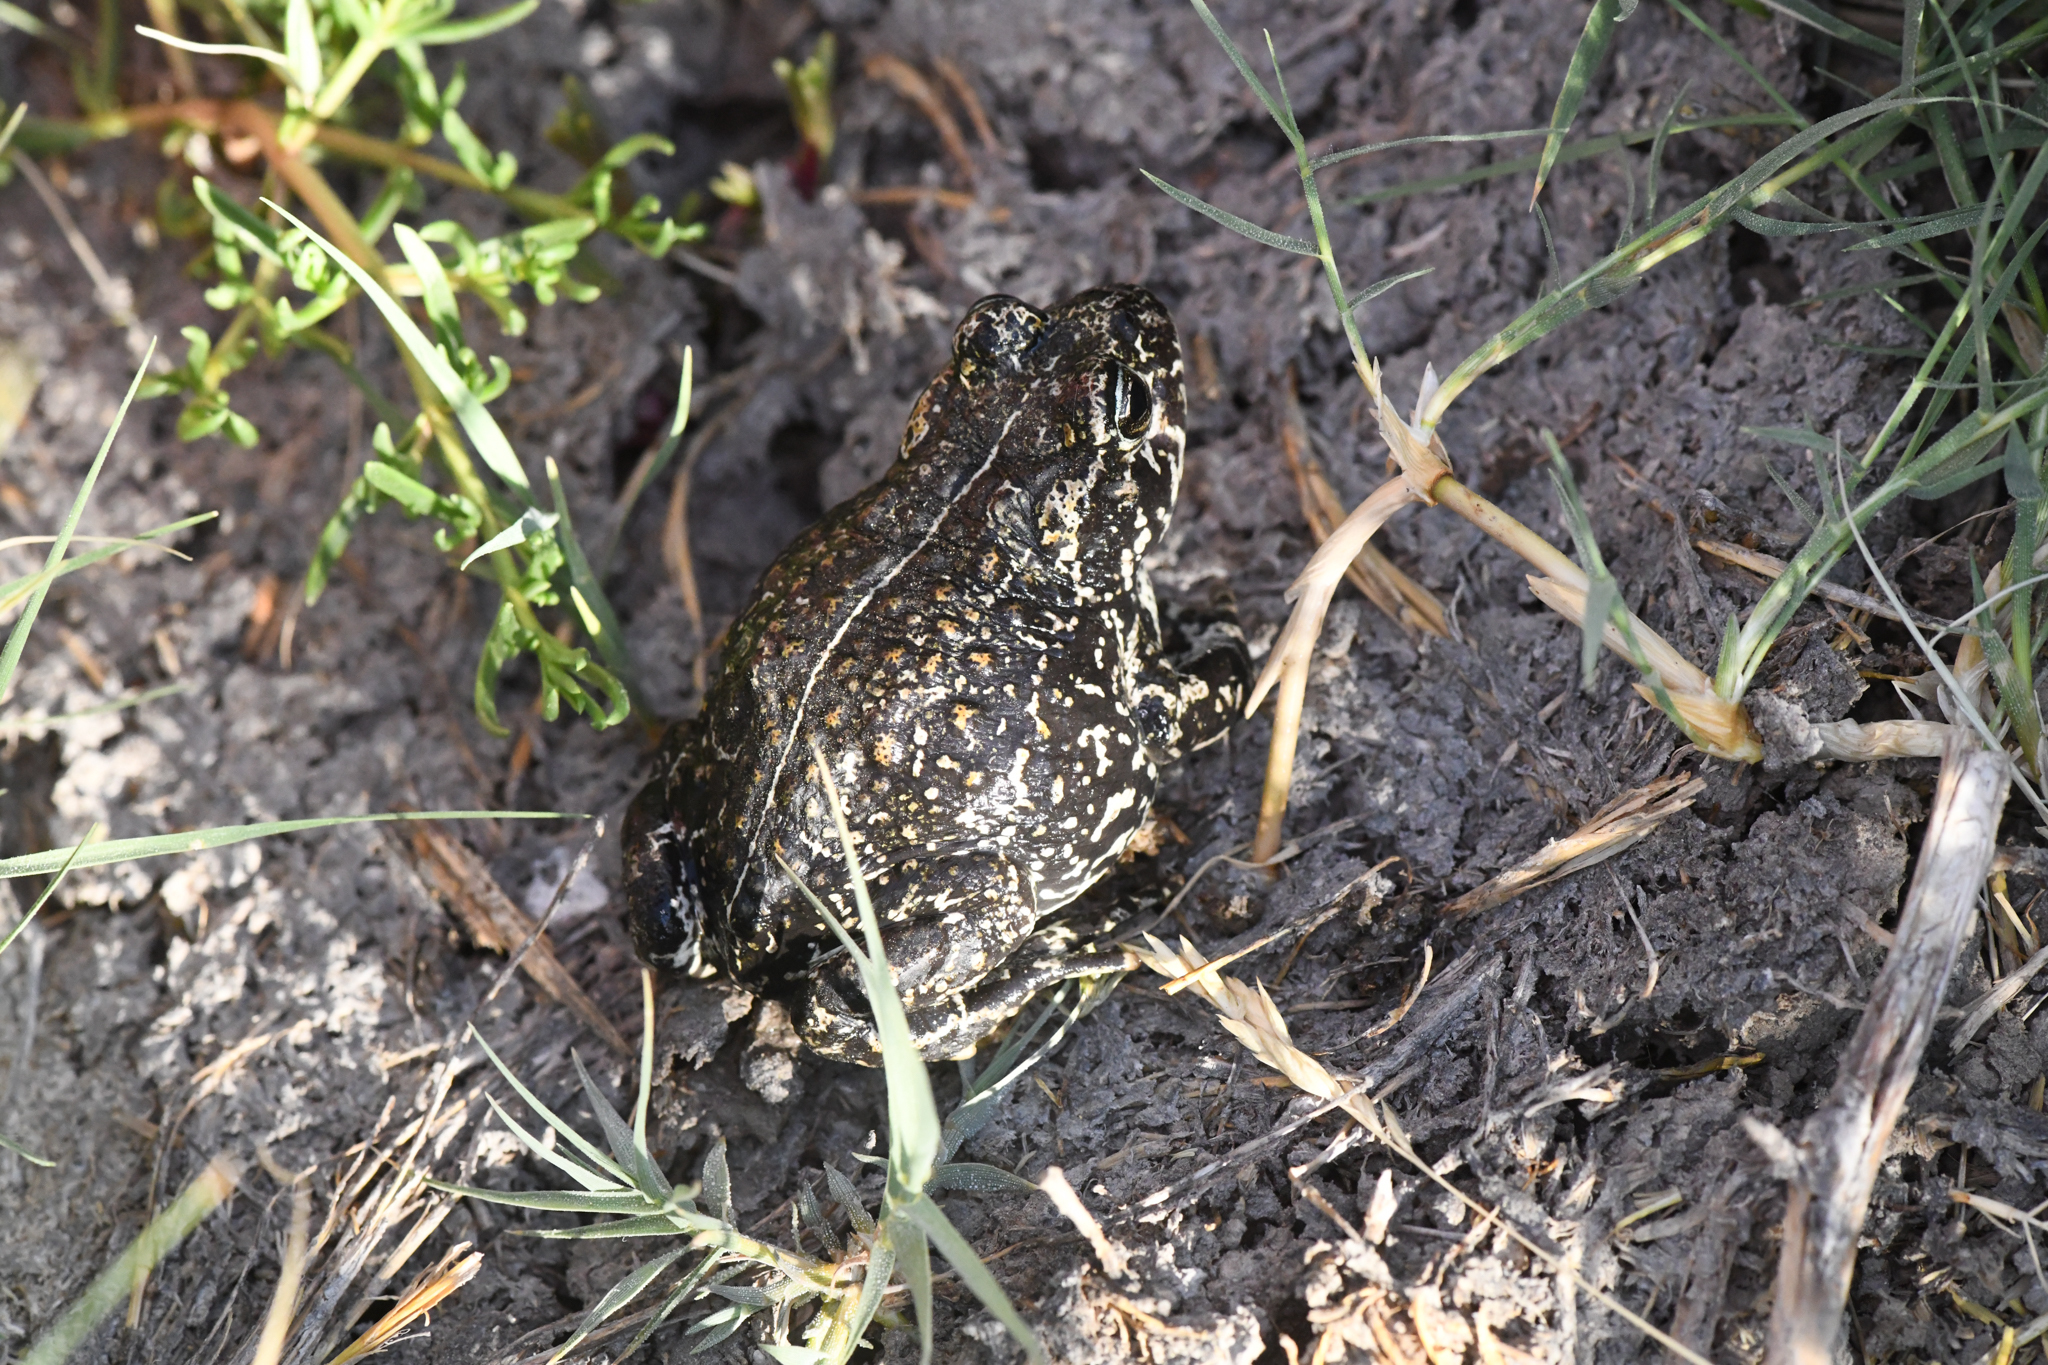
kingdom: Animalia
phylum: Chordata
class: Amphibia
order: Anura
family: Bufonidae
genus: Anaxyrus
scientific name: Anaxyrus exsul
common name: Black toad
